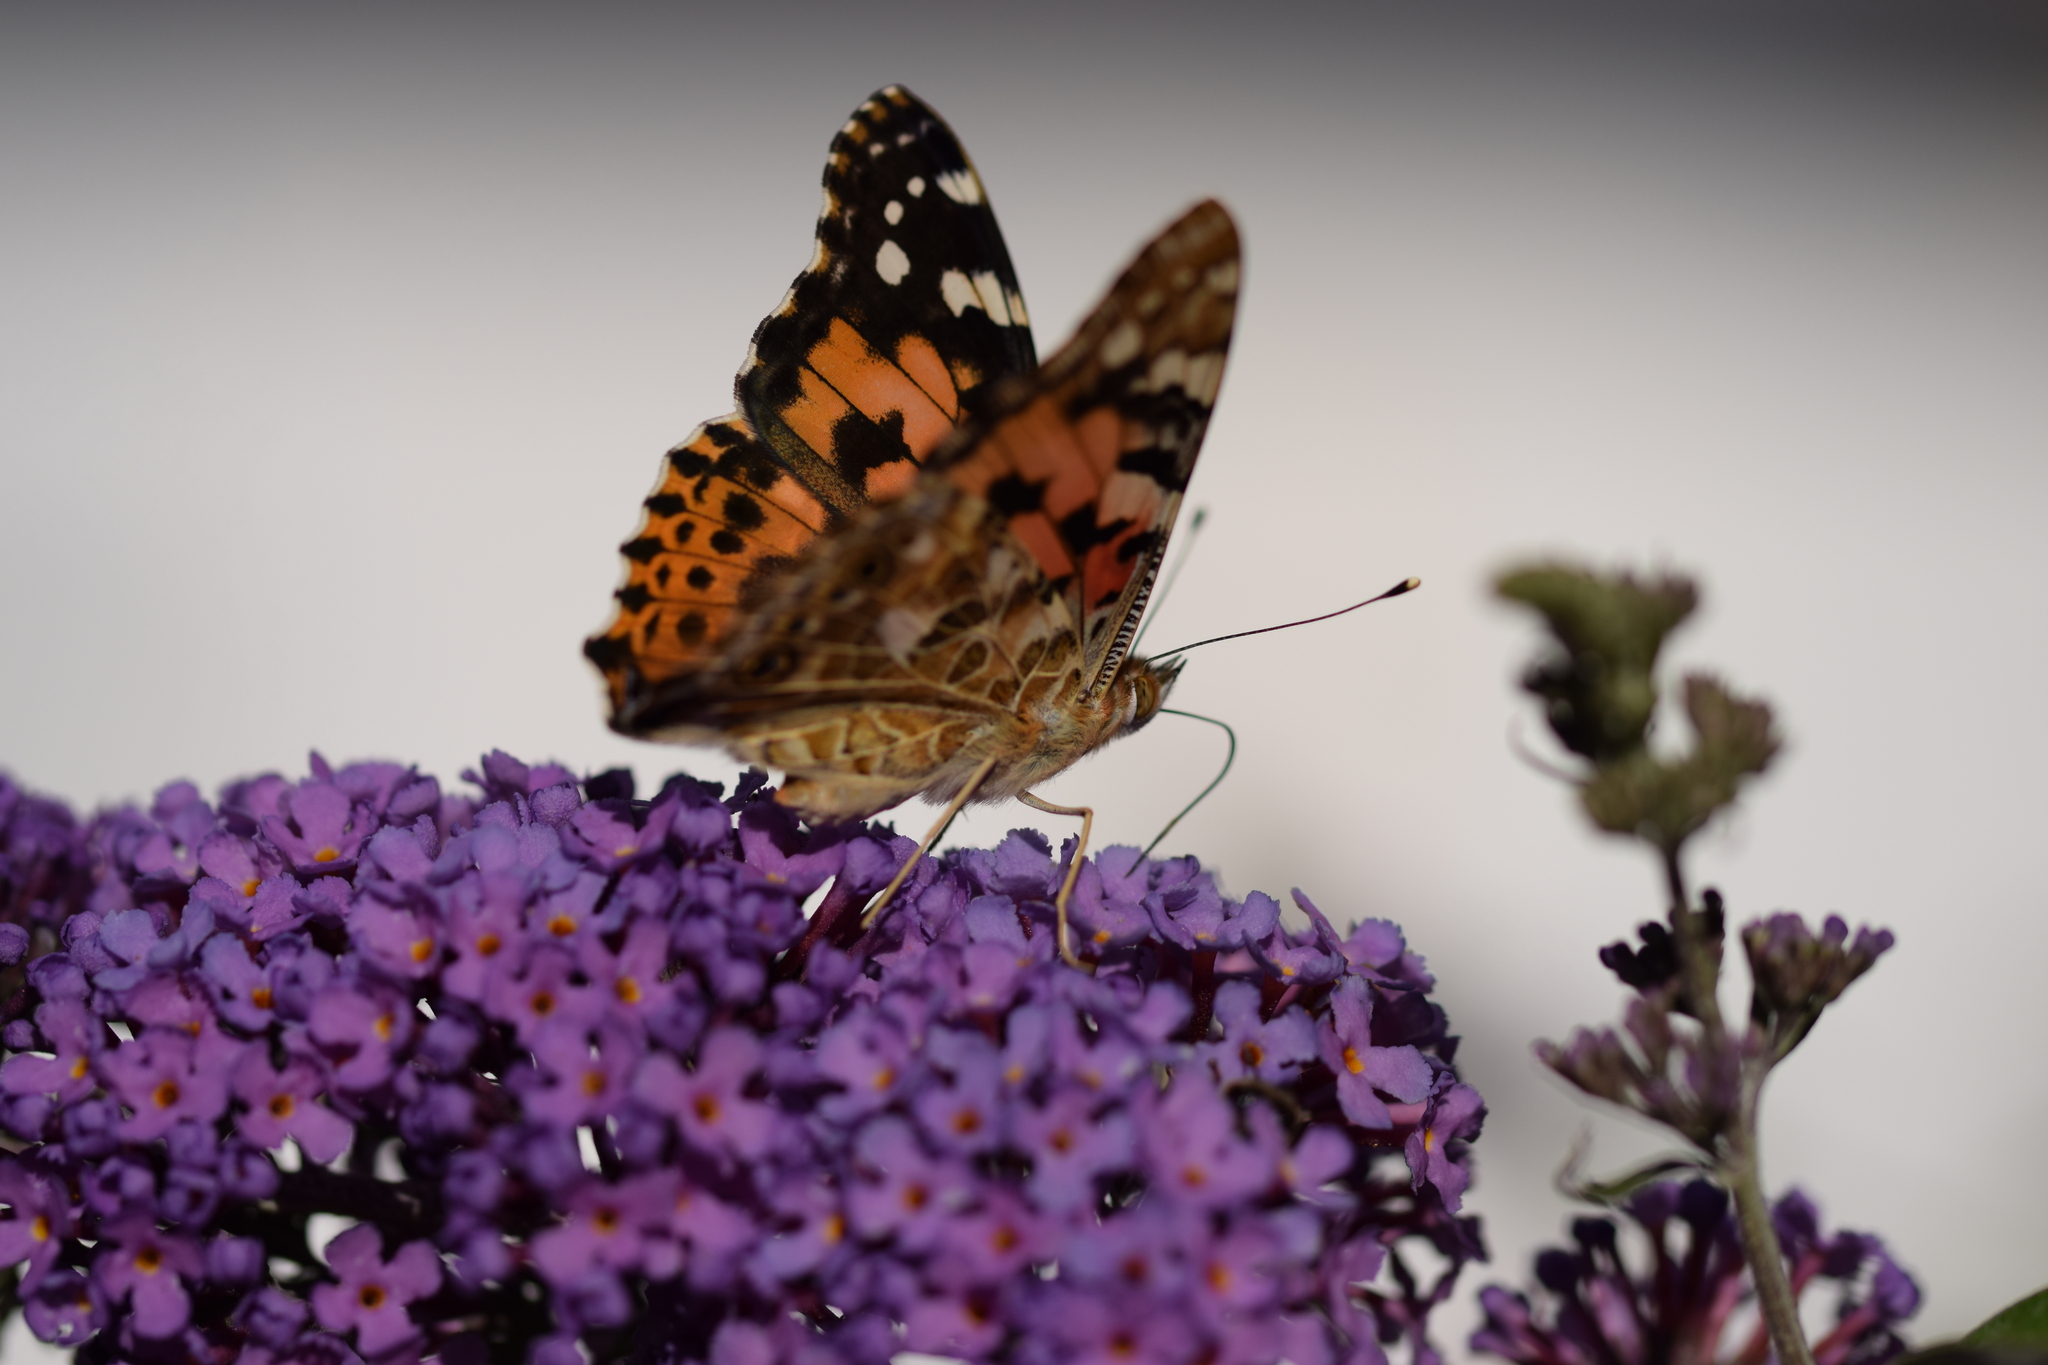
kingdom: Animalia
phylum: Arthropoda
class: Insecta
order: Lepidoptera
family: Nymphalidae
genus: Vanessa
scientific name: Vanessa cardui
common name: Painted lady
